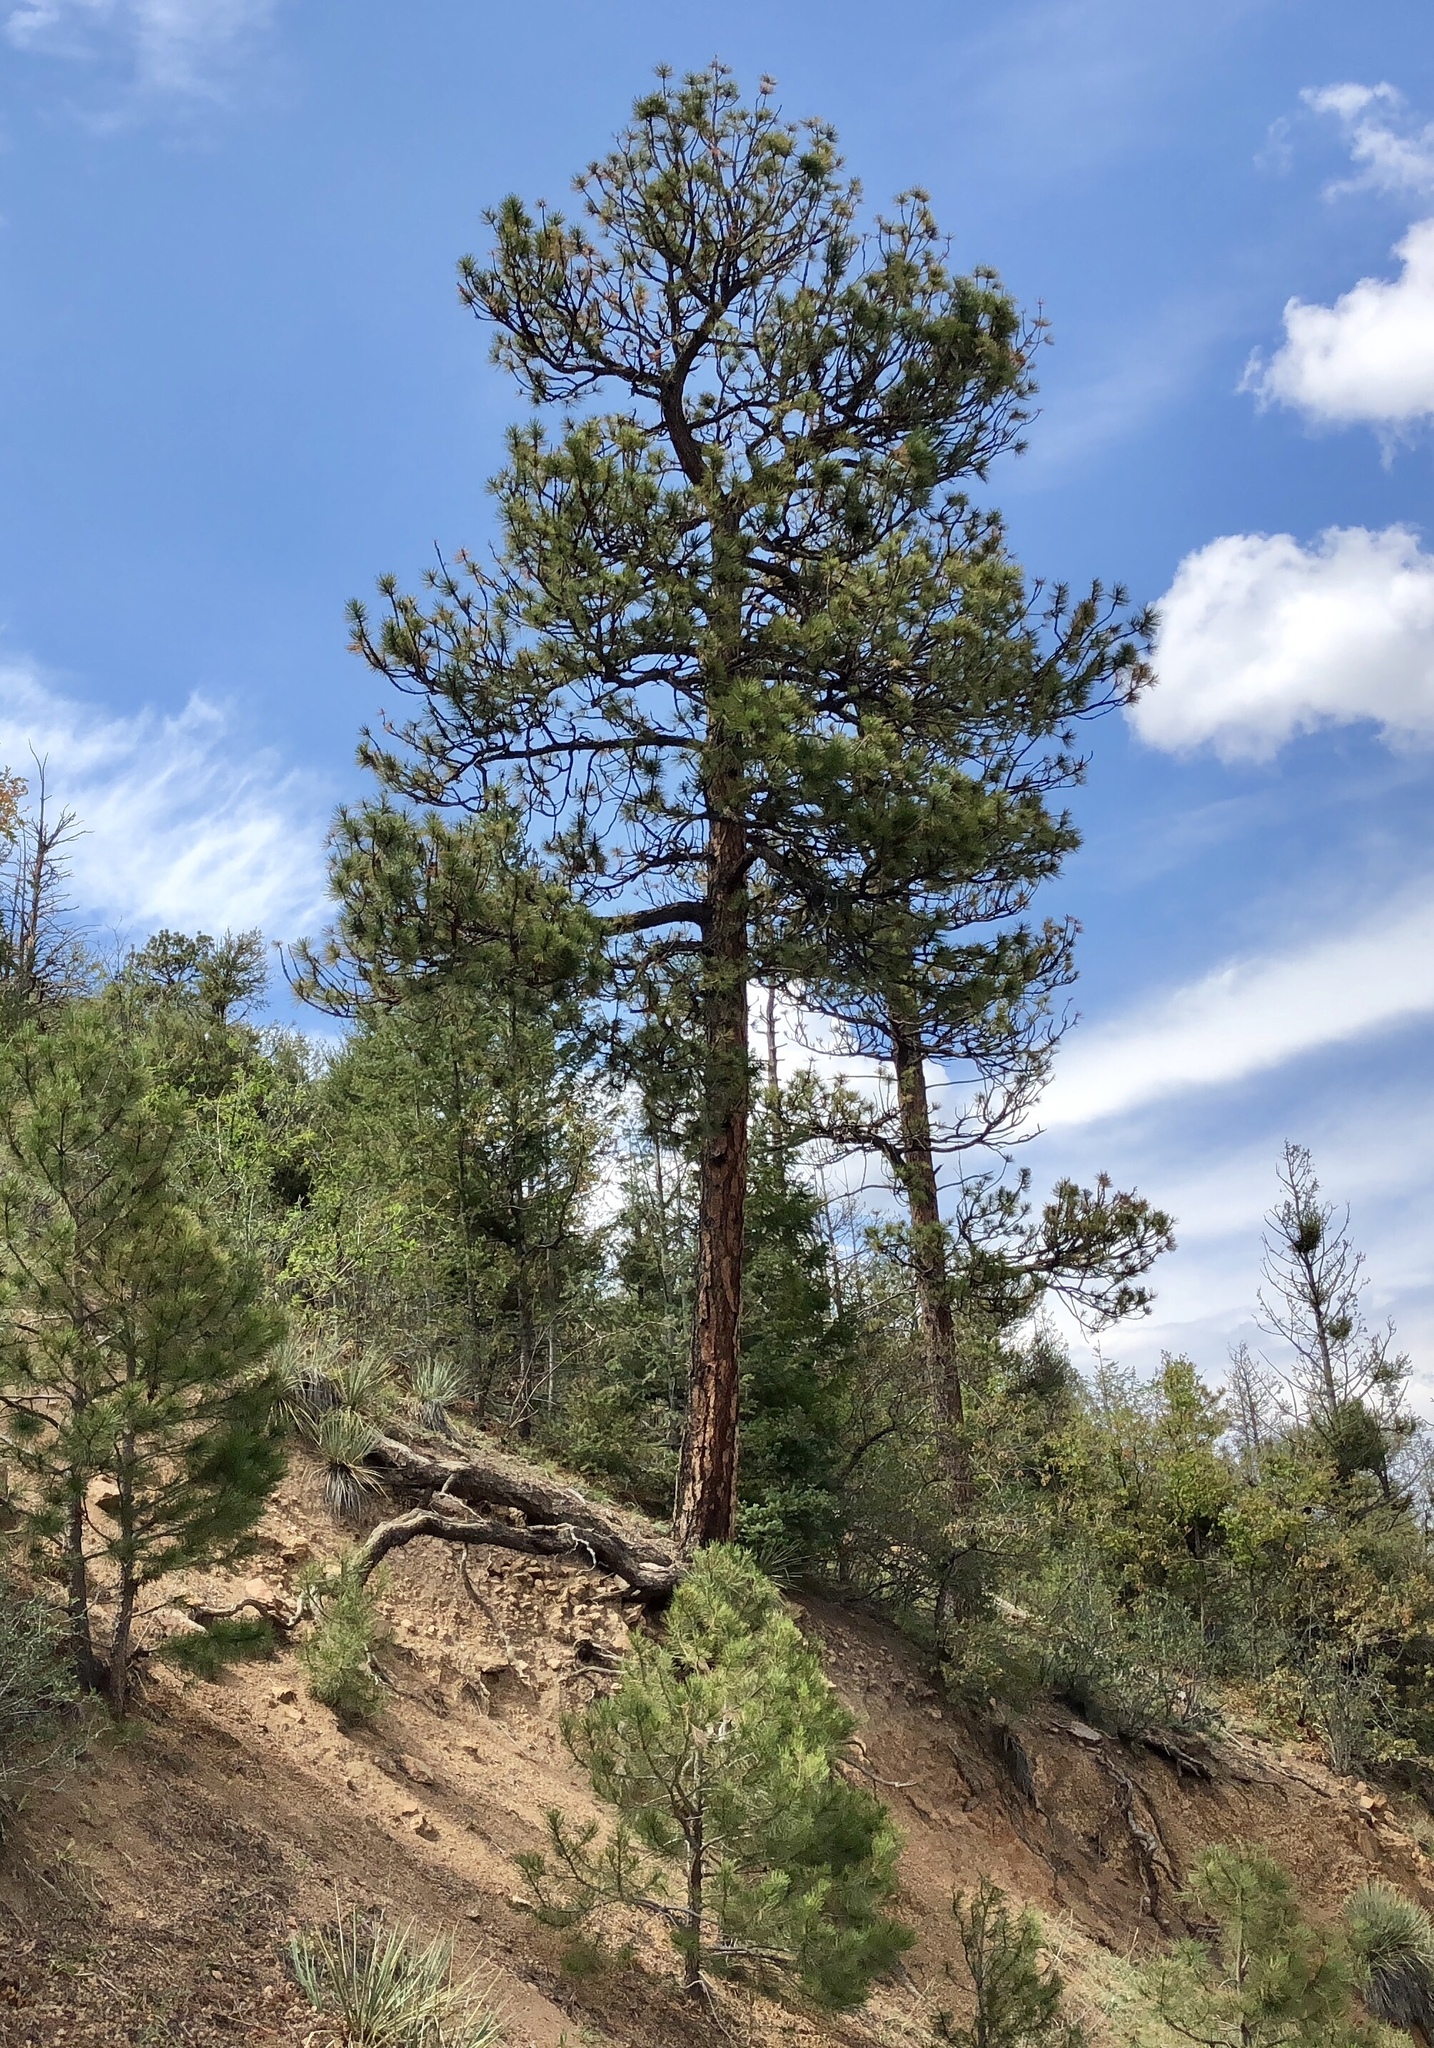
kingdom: Plantae
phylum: Tracheophyta
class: Pinopsida
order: Pinales
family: Pinaceae
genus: Pinus
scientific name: Pinus ponderosa
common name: Western yellow-pine
